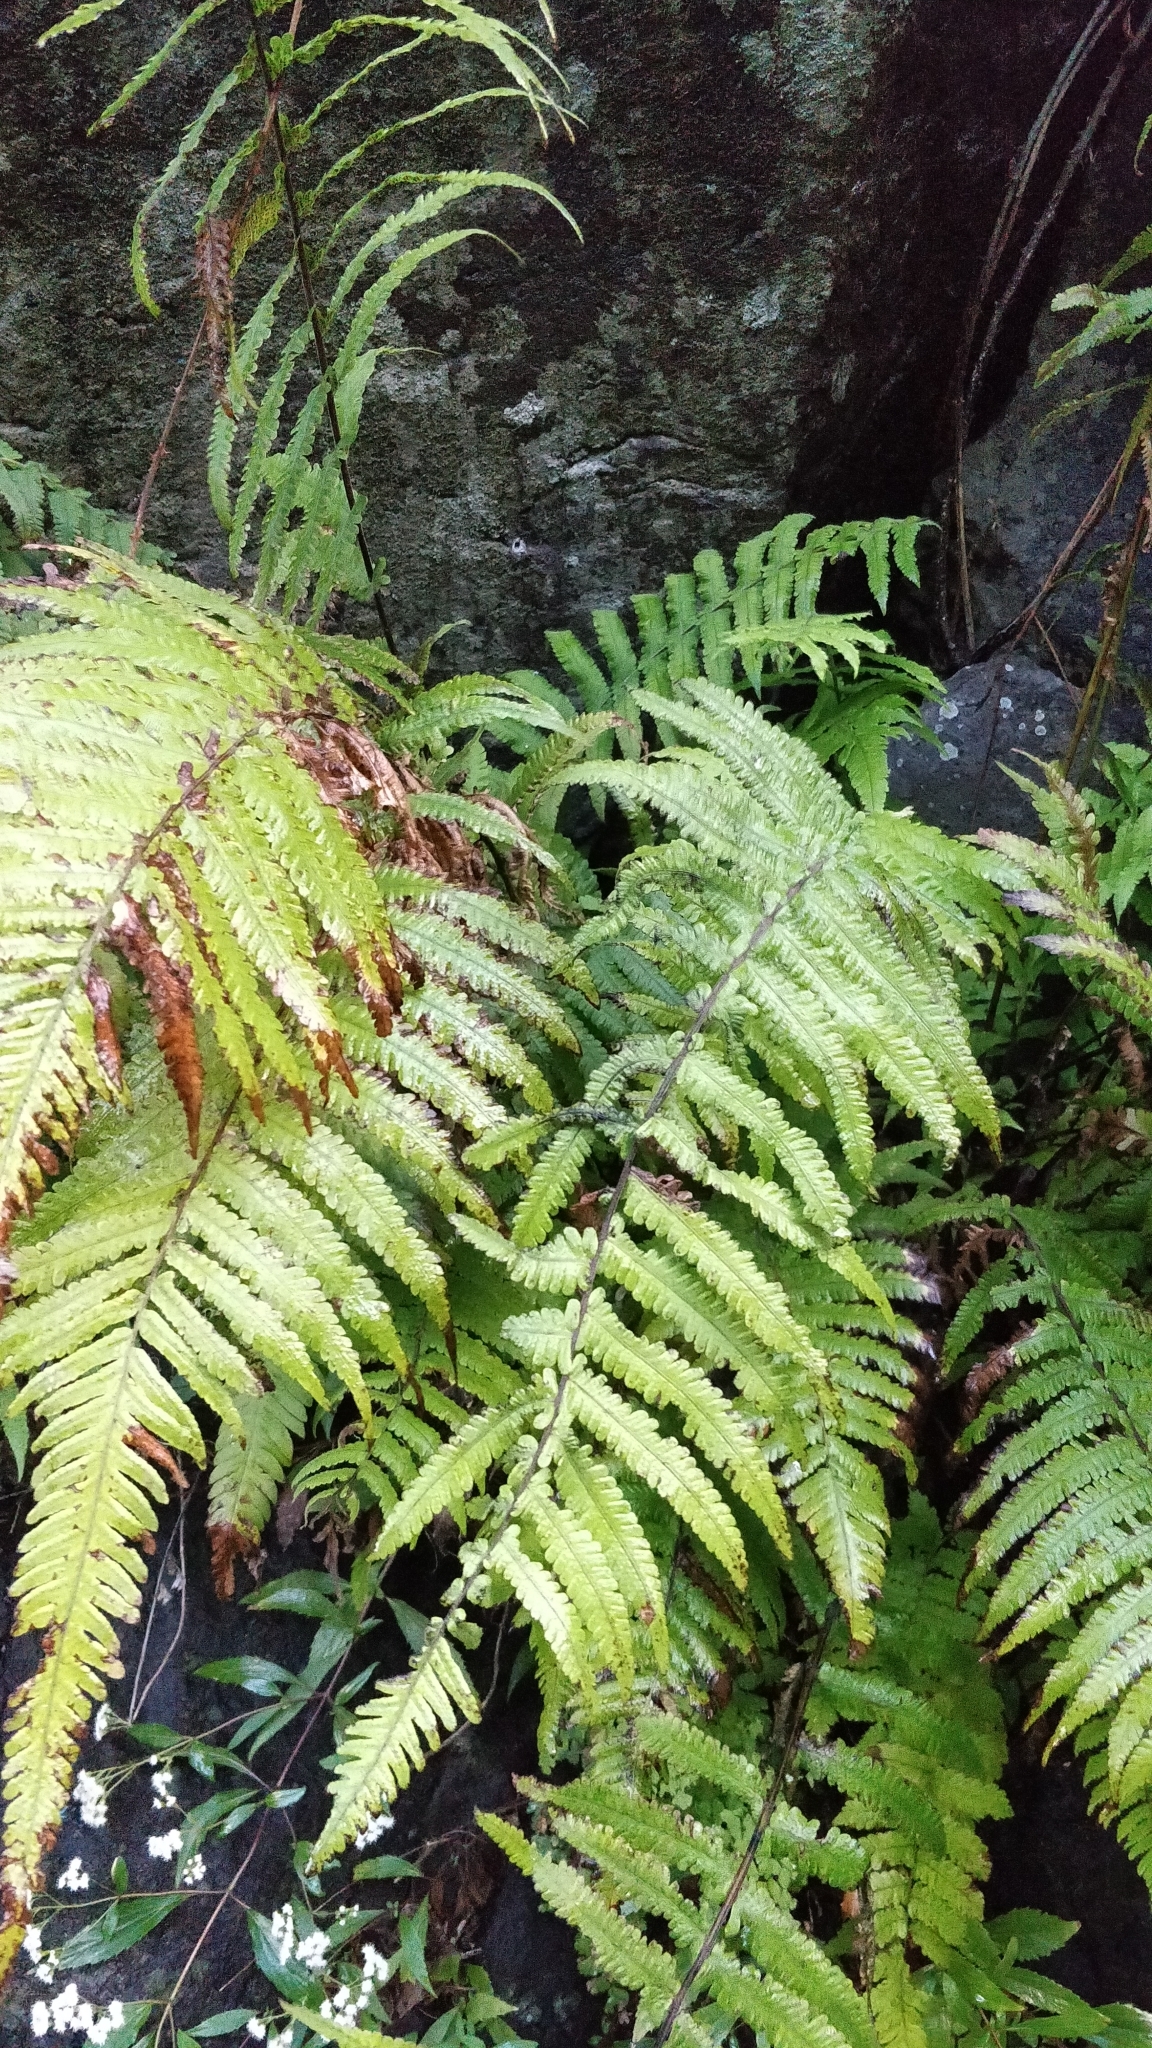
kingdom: Plantae
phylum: Tracheophyta
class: Polypodiopsida
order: Polypodiales
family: Thelypteridaceae
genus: Christella
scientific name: Christella dentata
